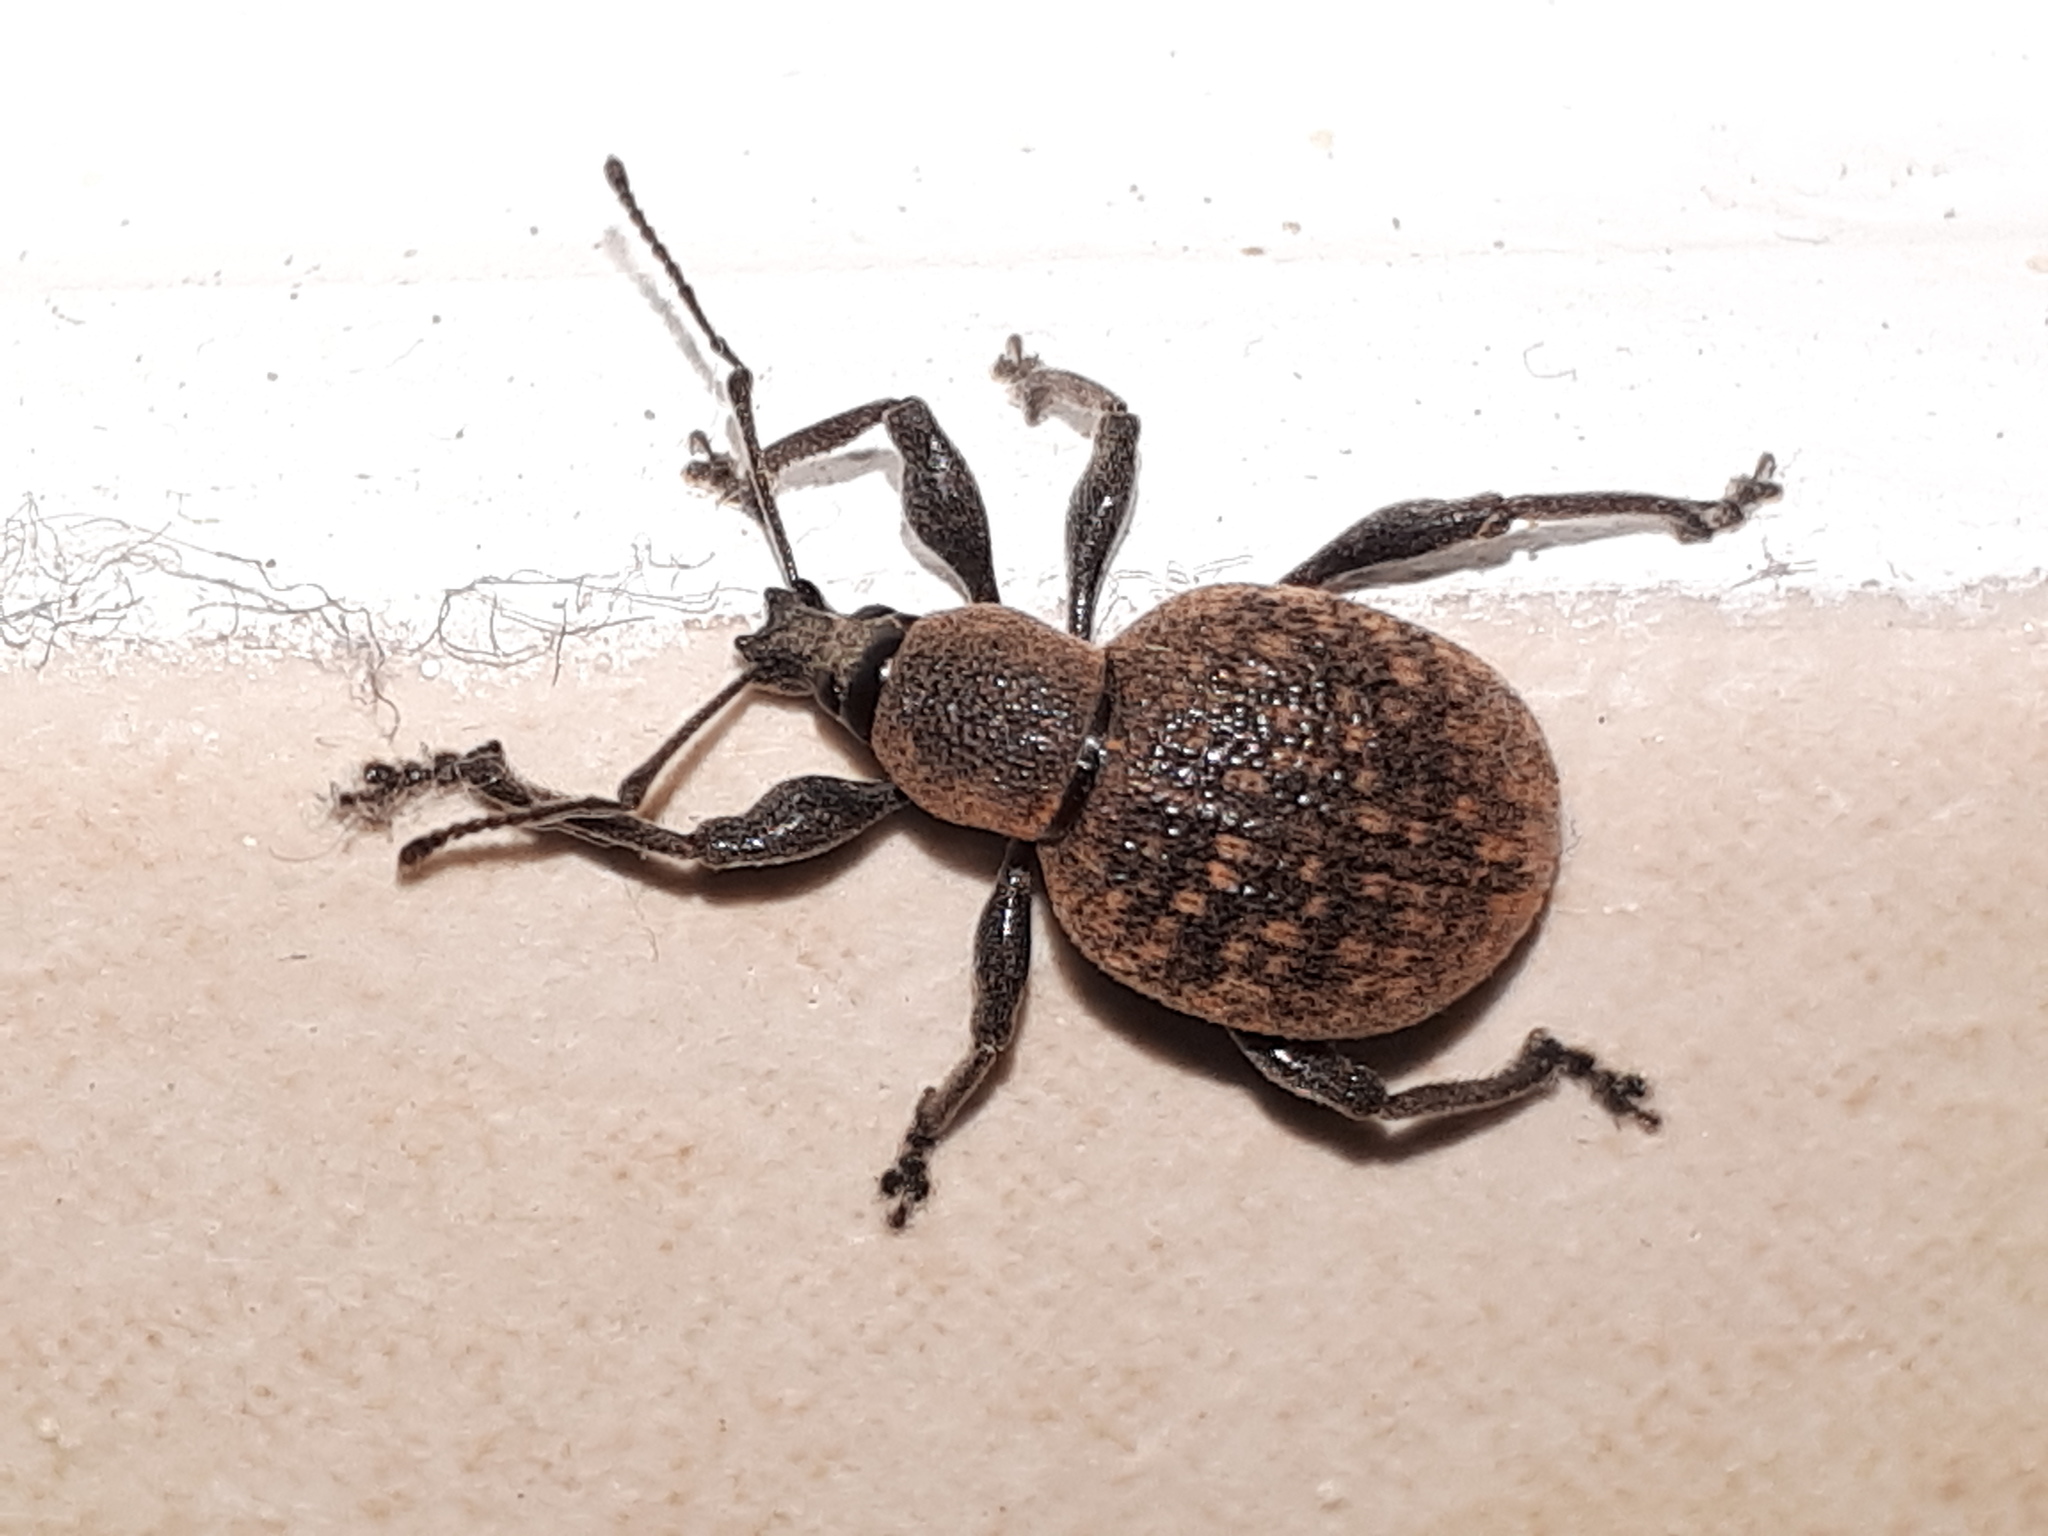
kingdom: Animalia
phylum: Arthropoda
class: Insecta
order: Coleoptera
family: Curculionidae
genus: Otiorhynchus
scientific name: Otiorhynchus armadillo
